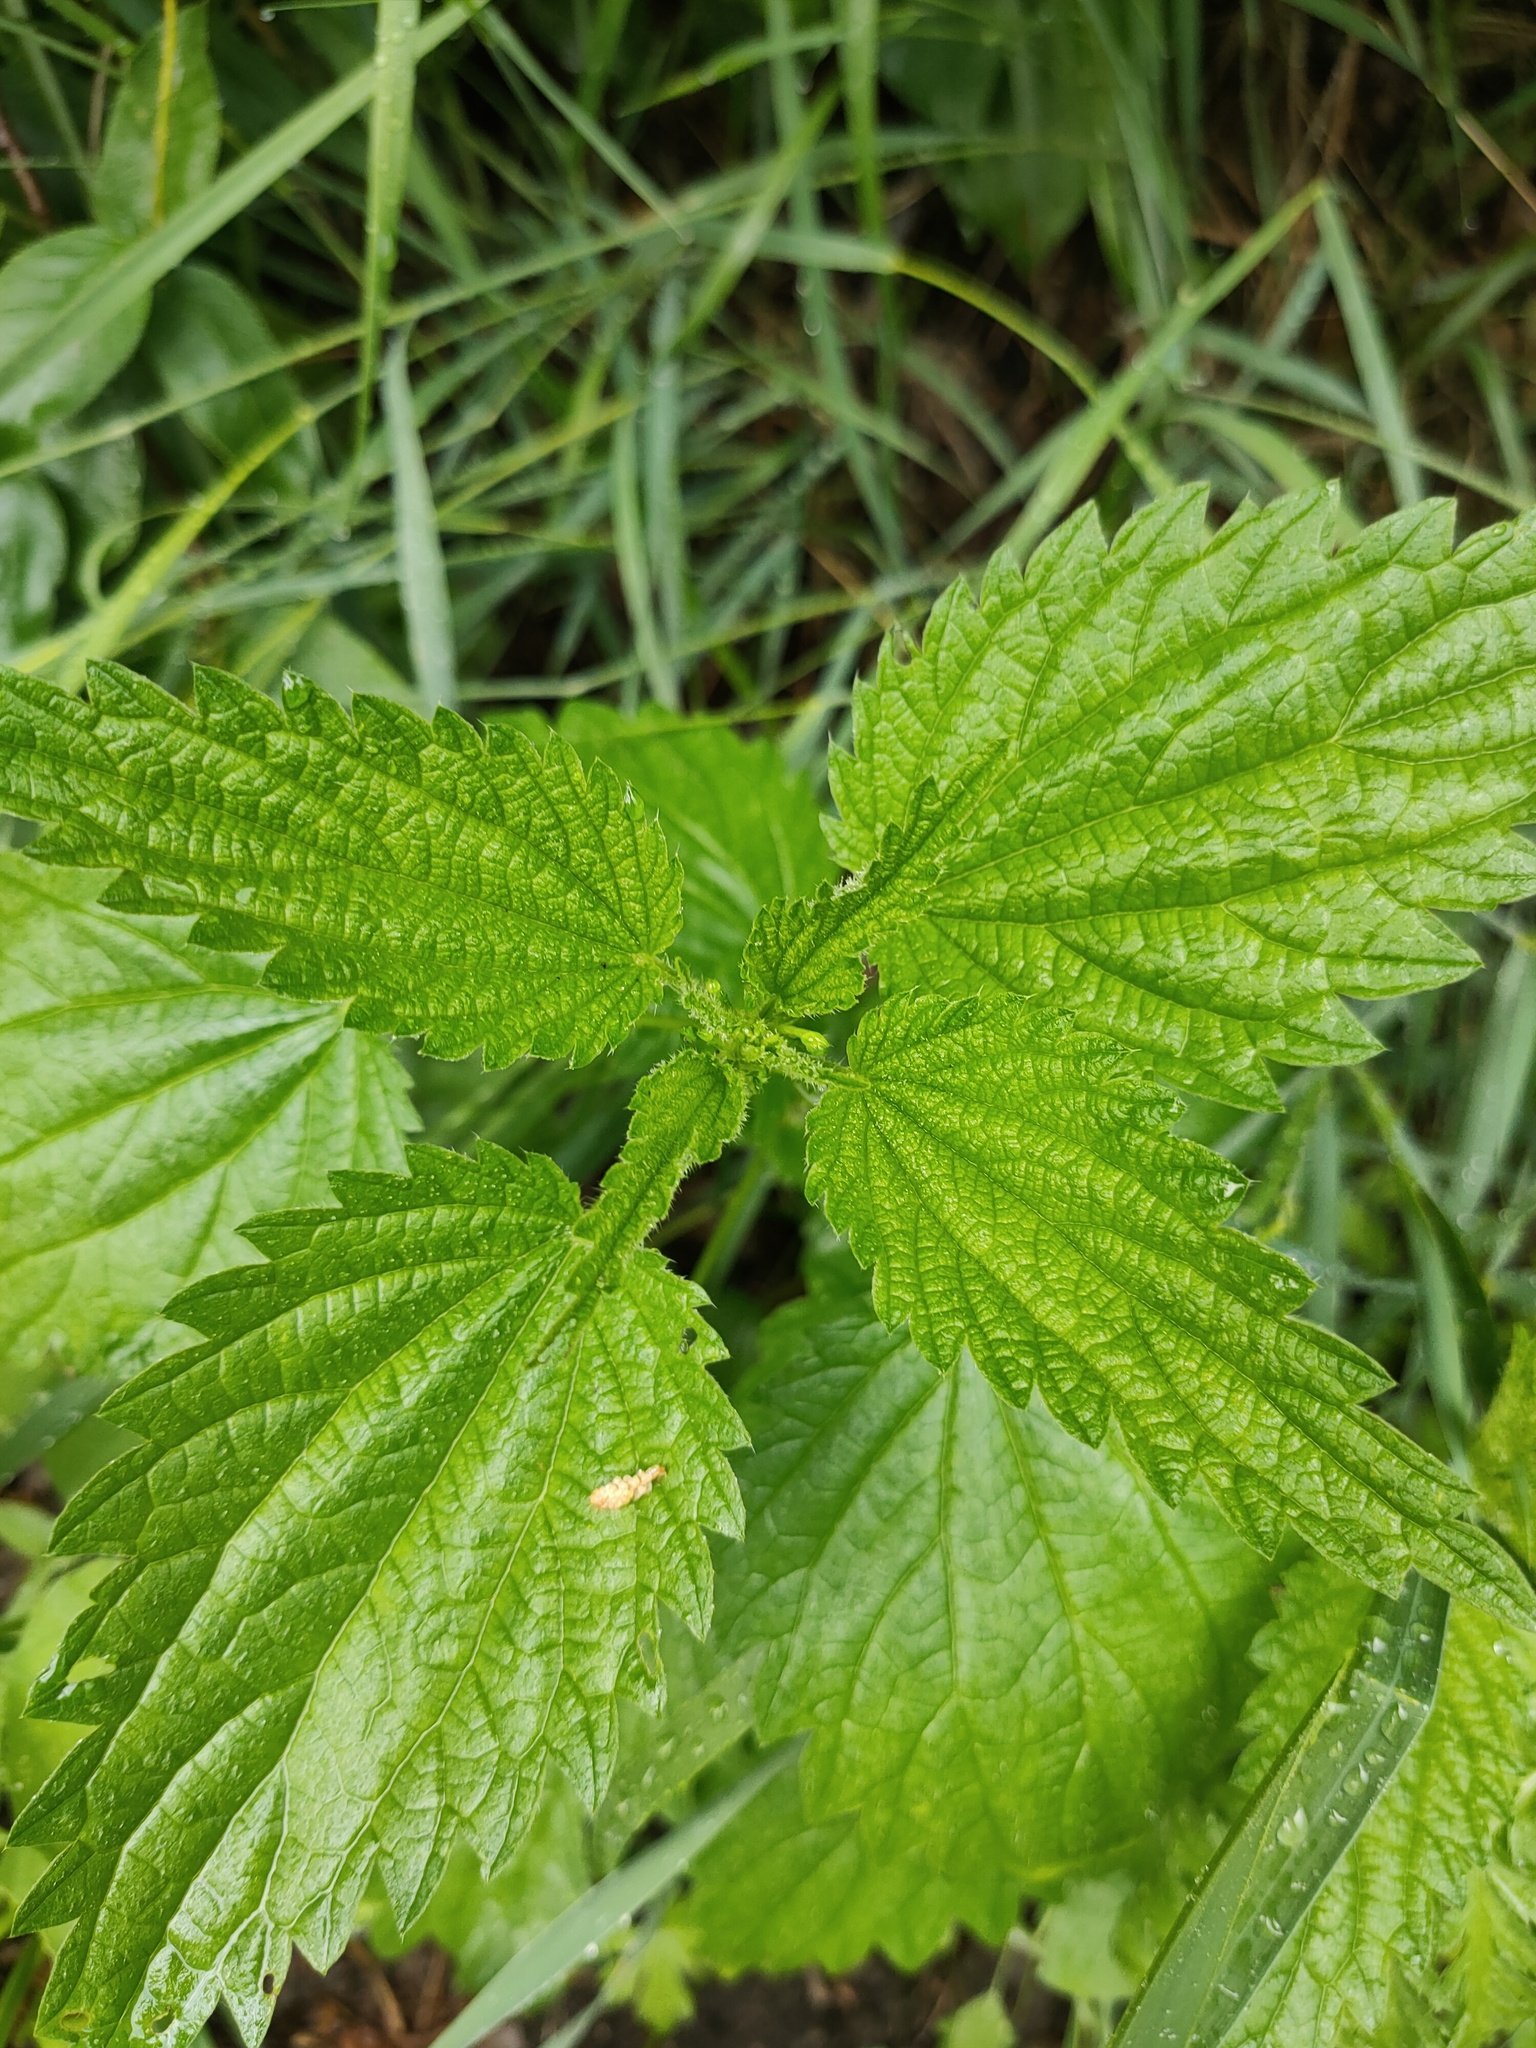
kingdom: Plantae
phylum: Tracheophyta
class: Magnoliopsida
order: Rosales
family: Urticaceae
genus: Urtica
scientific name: Urtica dioica
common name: Common nettle
